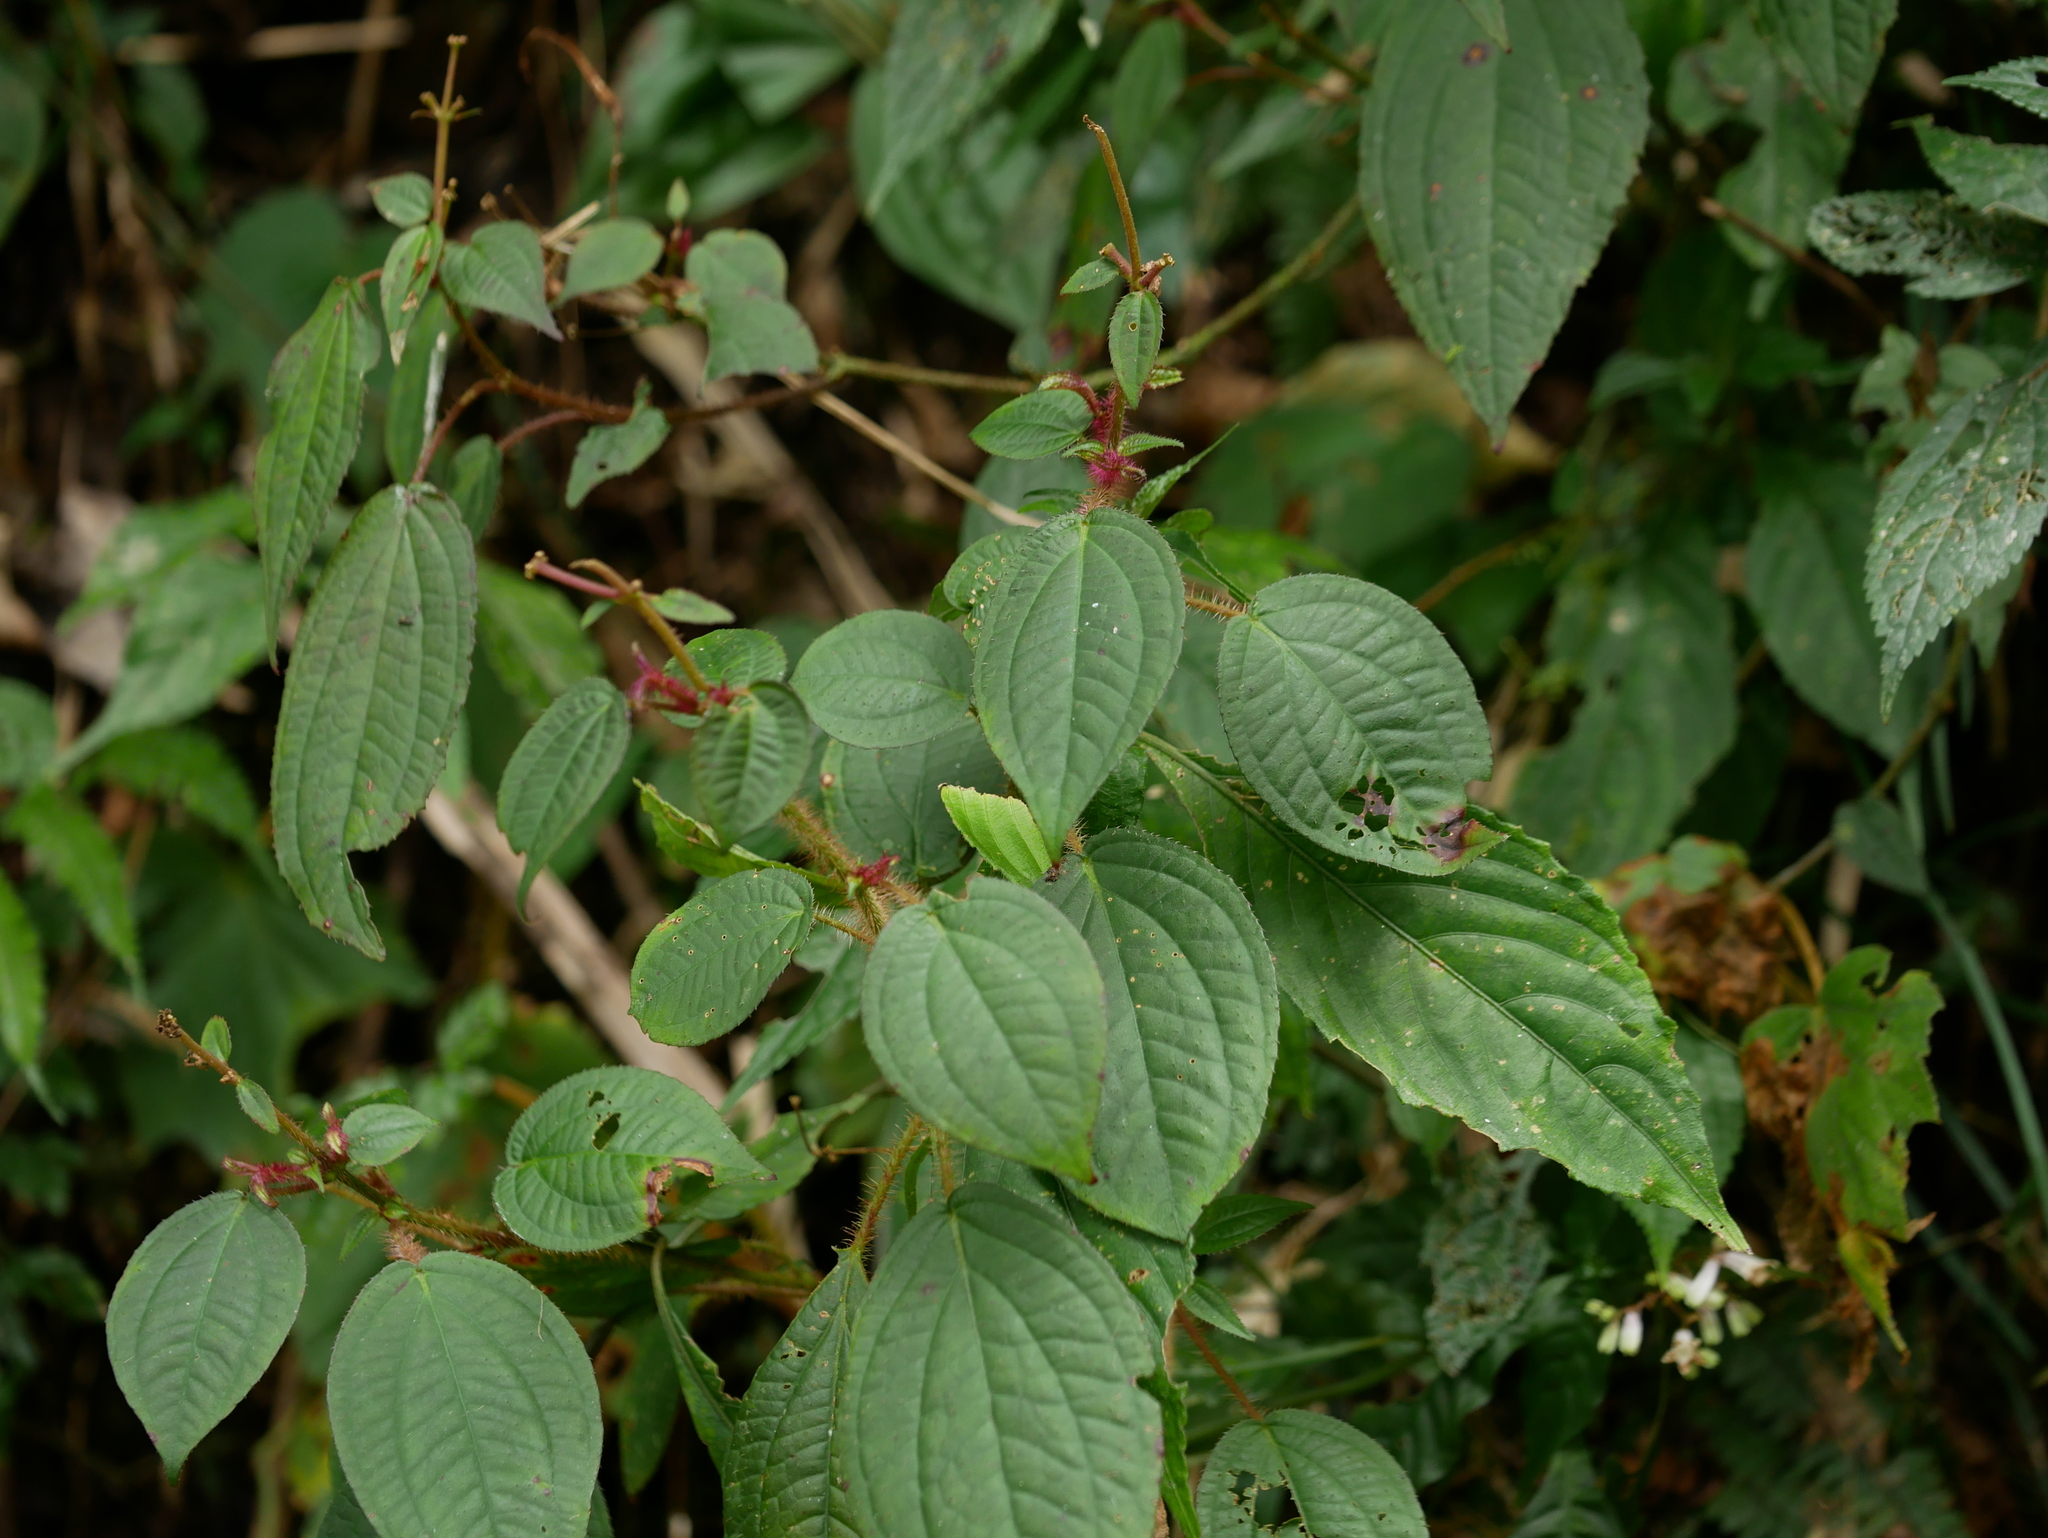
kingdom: Plantae
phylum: Tracheophyta
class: Magnoliopsida
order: Myrtales
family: Melastomataceae
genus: Bredia
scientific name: Bredia hirsuta
